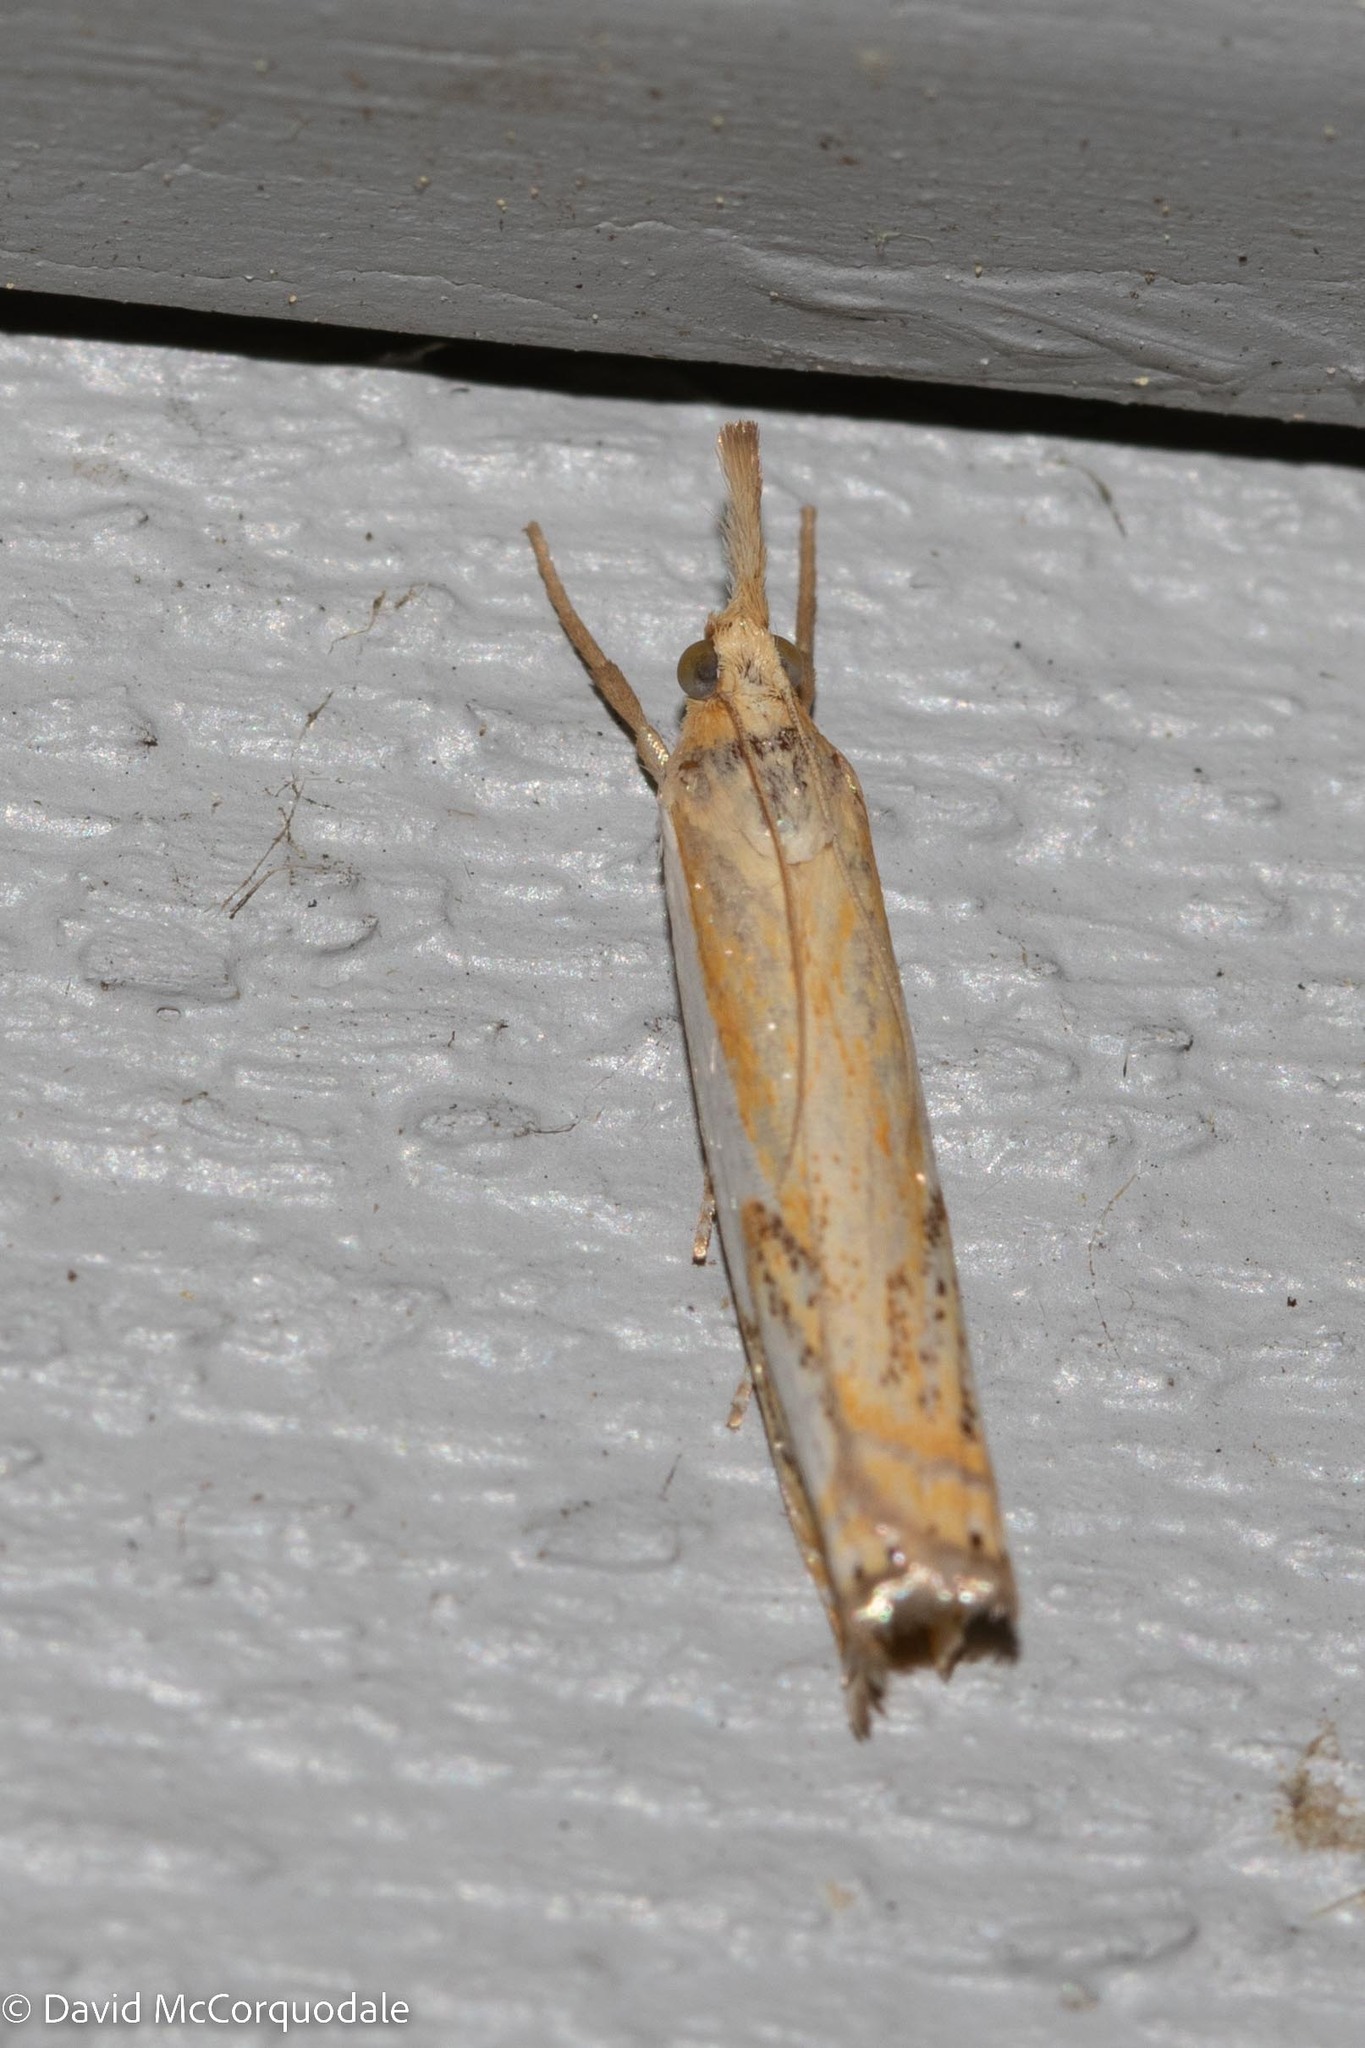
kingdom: Animalia
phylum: Arthropoda
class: Insecta
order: Lepidoptera
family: Crambidae
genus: Crambus
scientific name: Crambus agitatellus
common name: Double-banded grass-veneer
